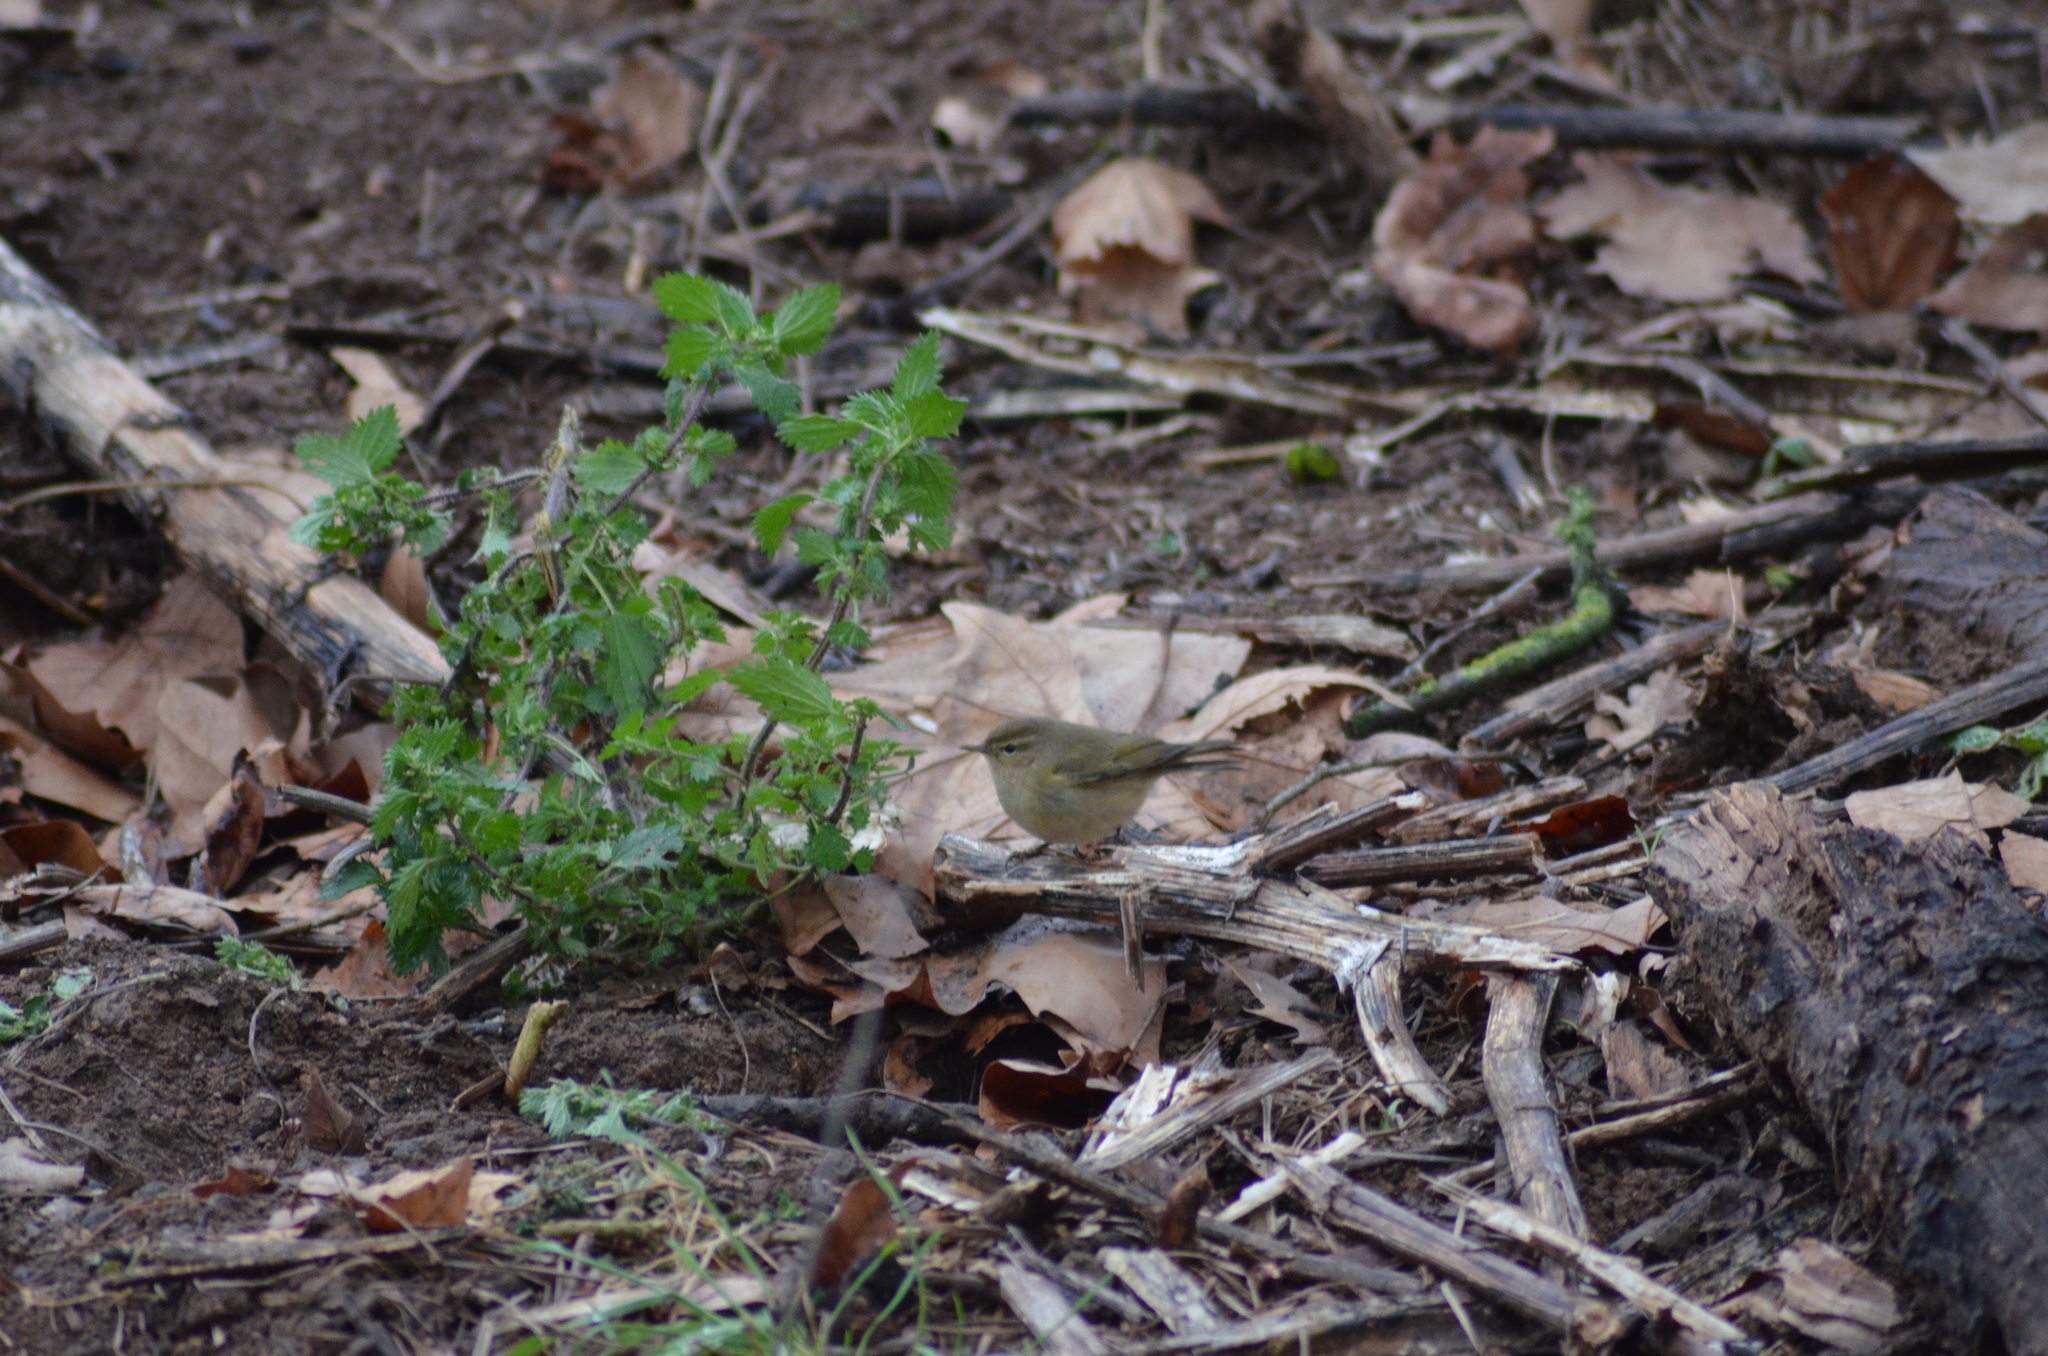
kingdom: Animalia
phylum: Chordata
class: Aves
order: Passeriformes
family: Phylloscopidae
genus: Phylloscopus
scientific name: Phylloscopus collybita
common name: Common chiffchaff
